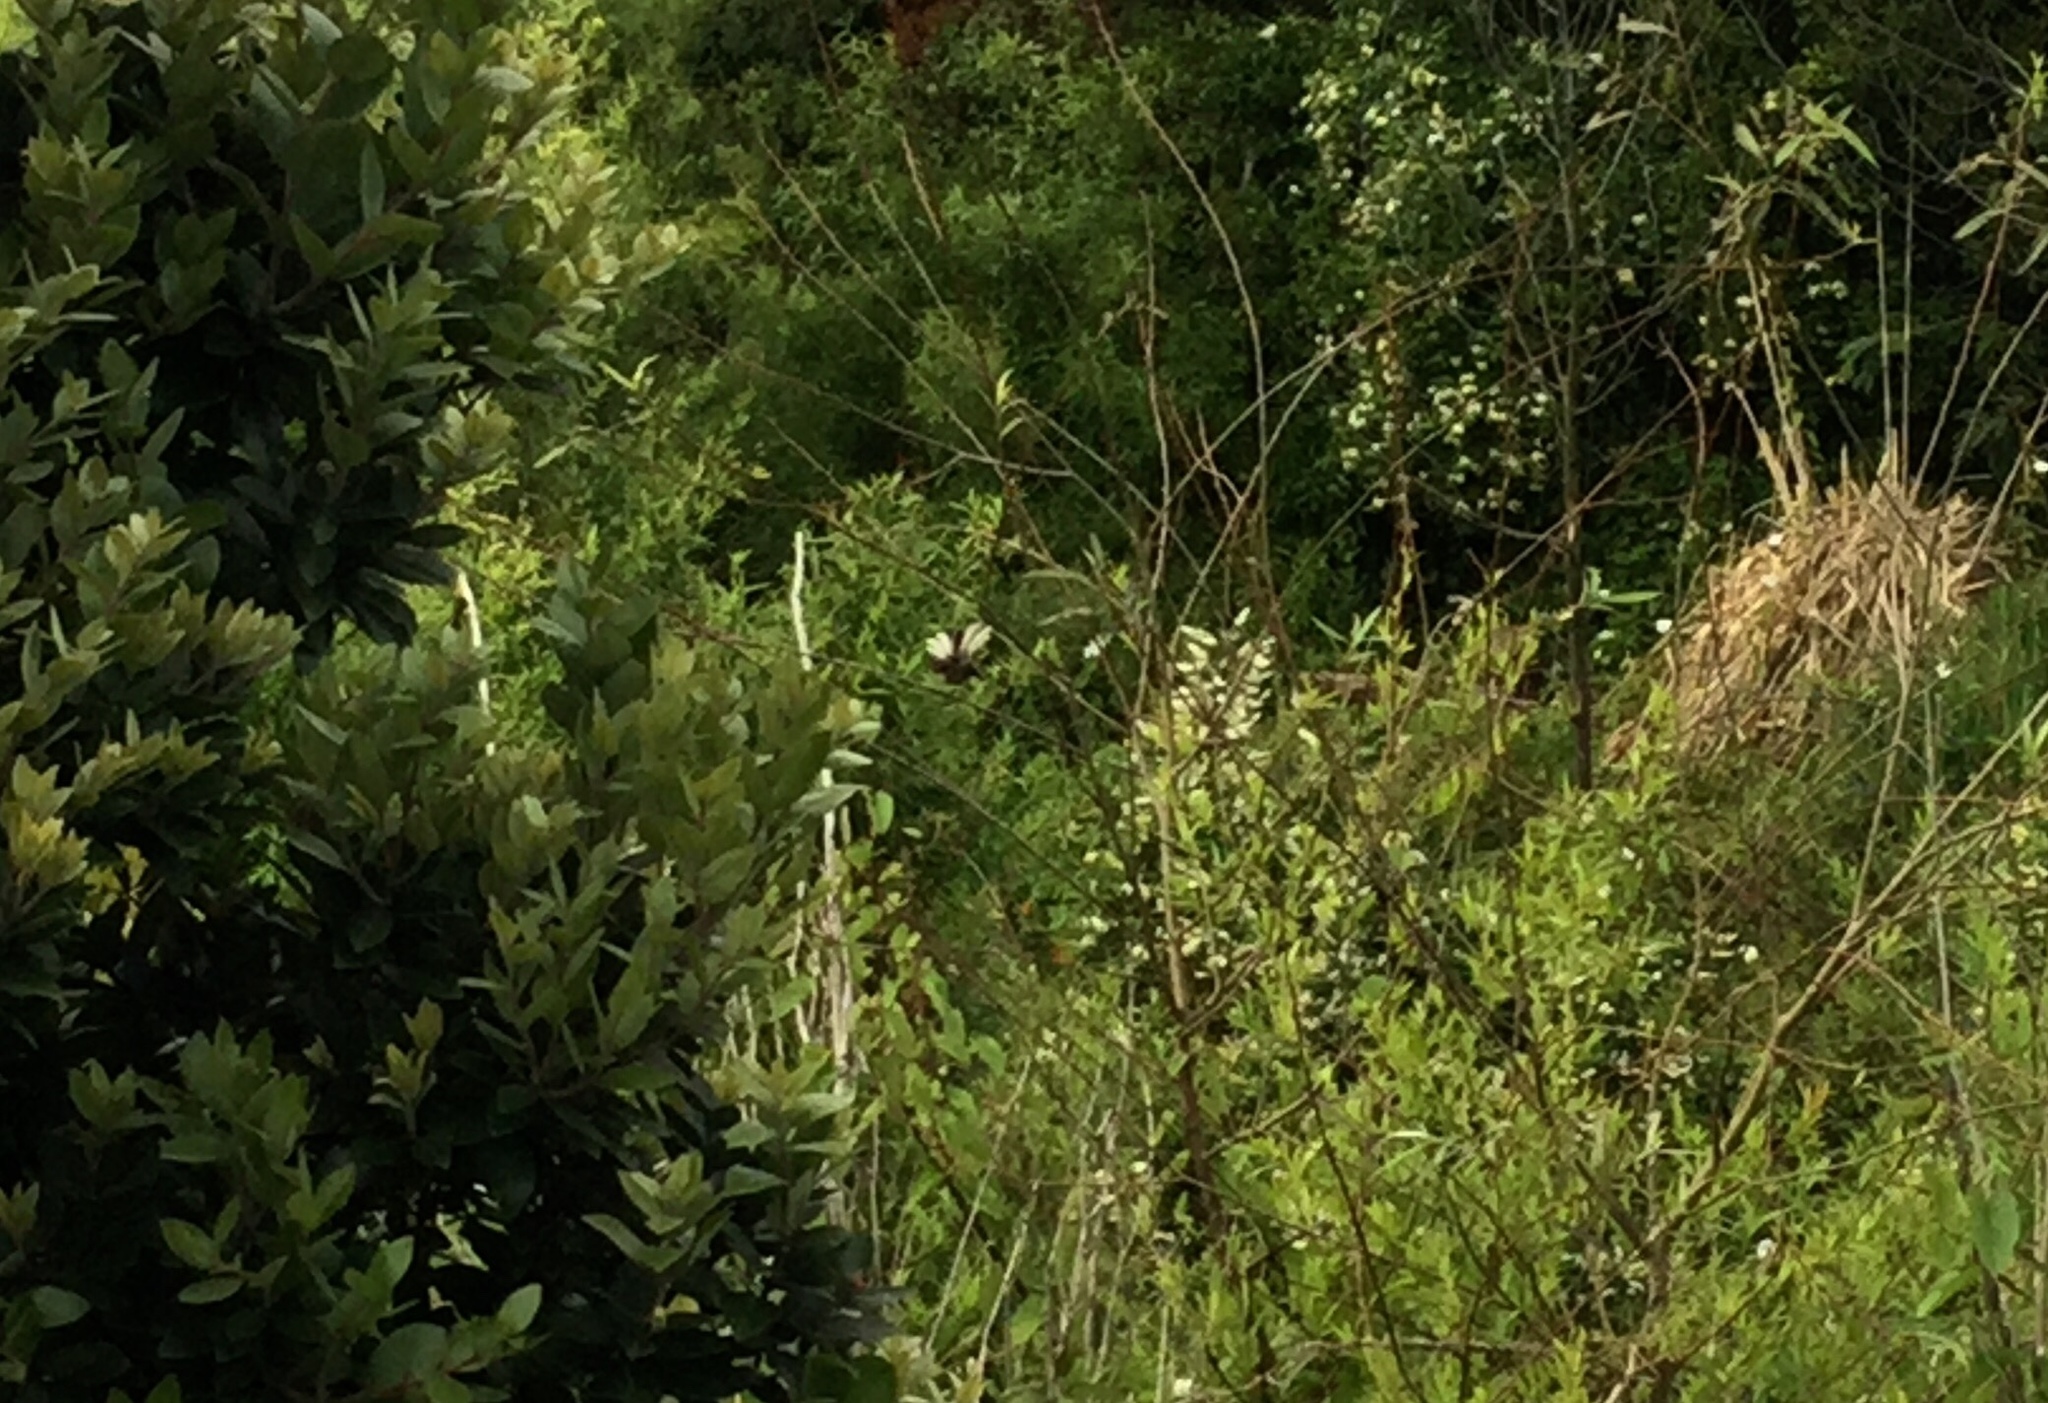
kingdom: Animalia
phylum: Chordata
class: Aves
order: Passeriformes
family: Rhipiduridae
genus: Rhipidura
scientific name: Rhipidura fuliginosa
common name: New zealand fantail
